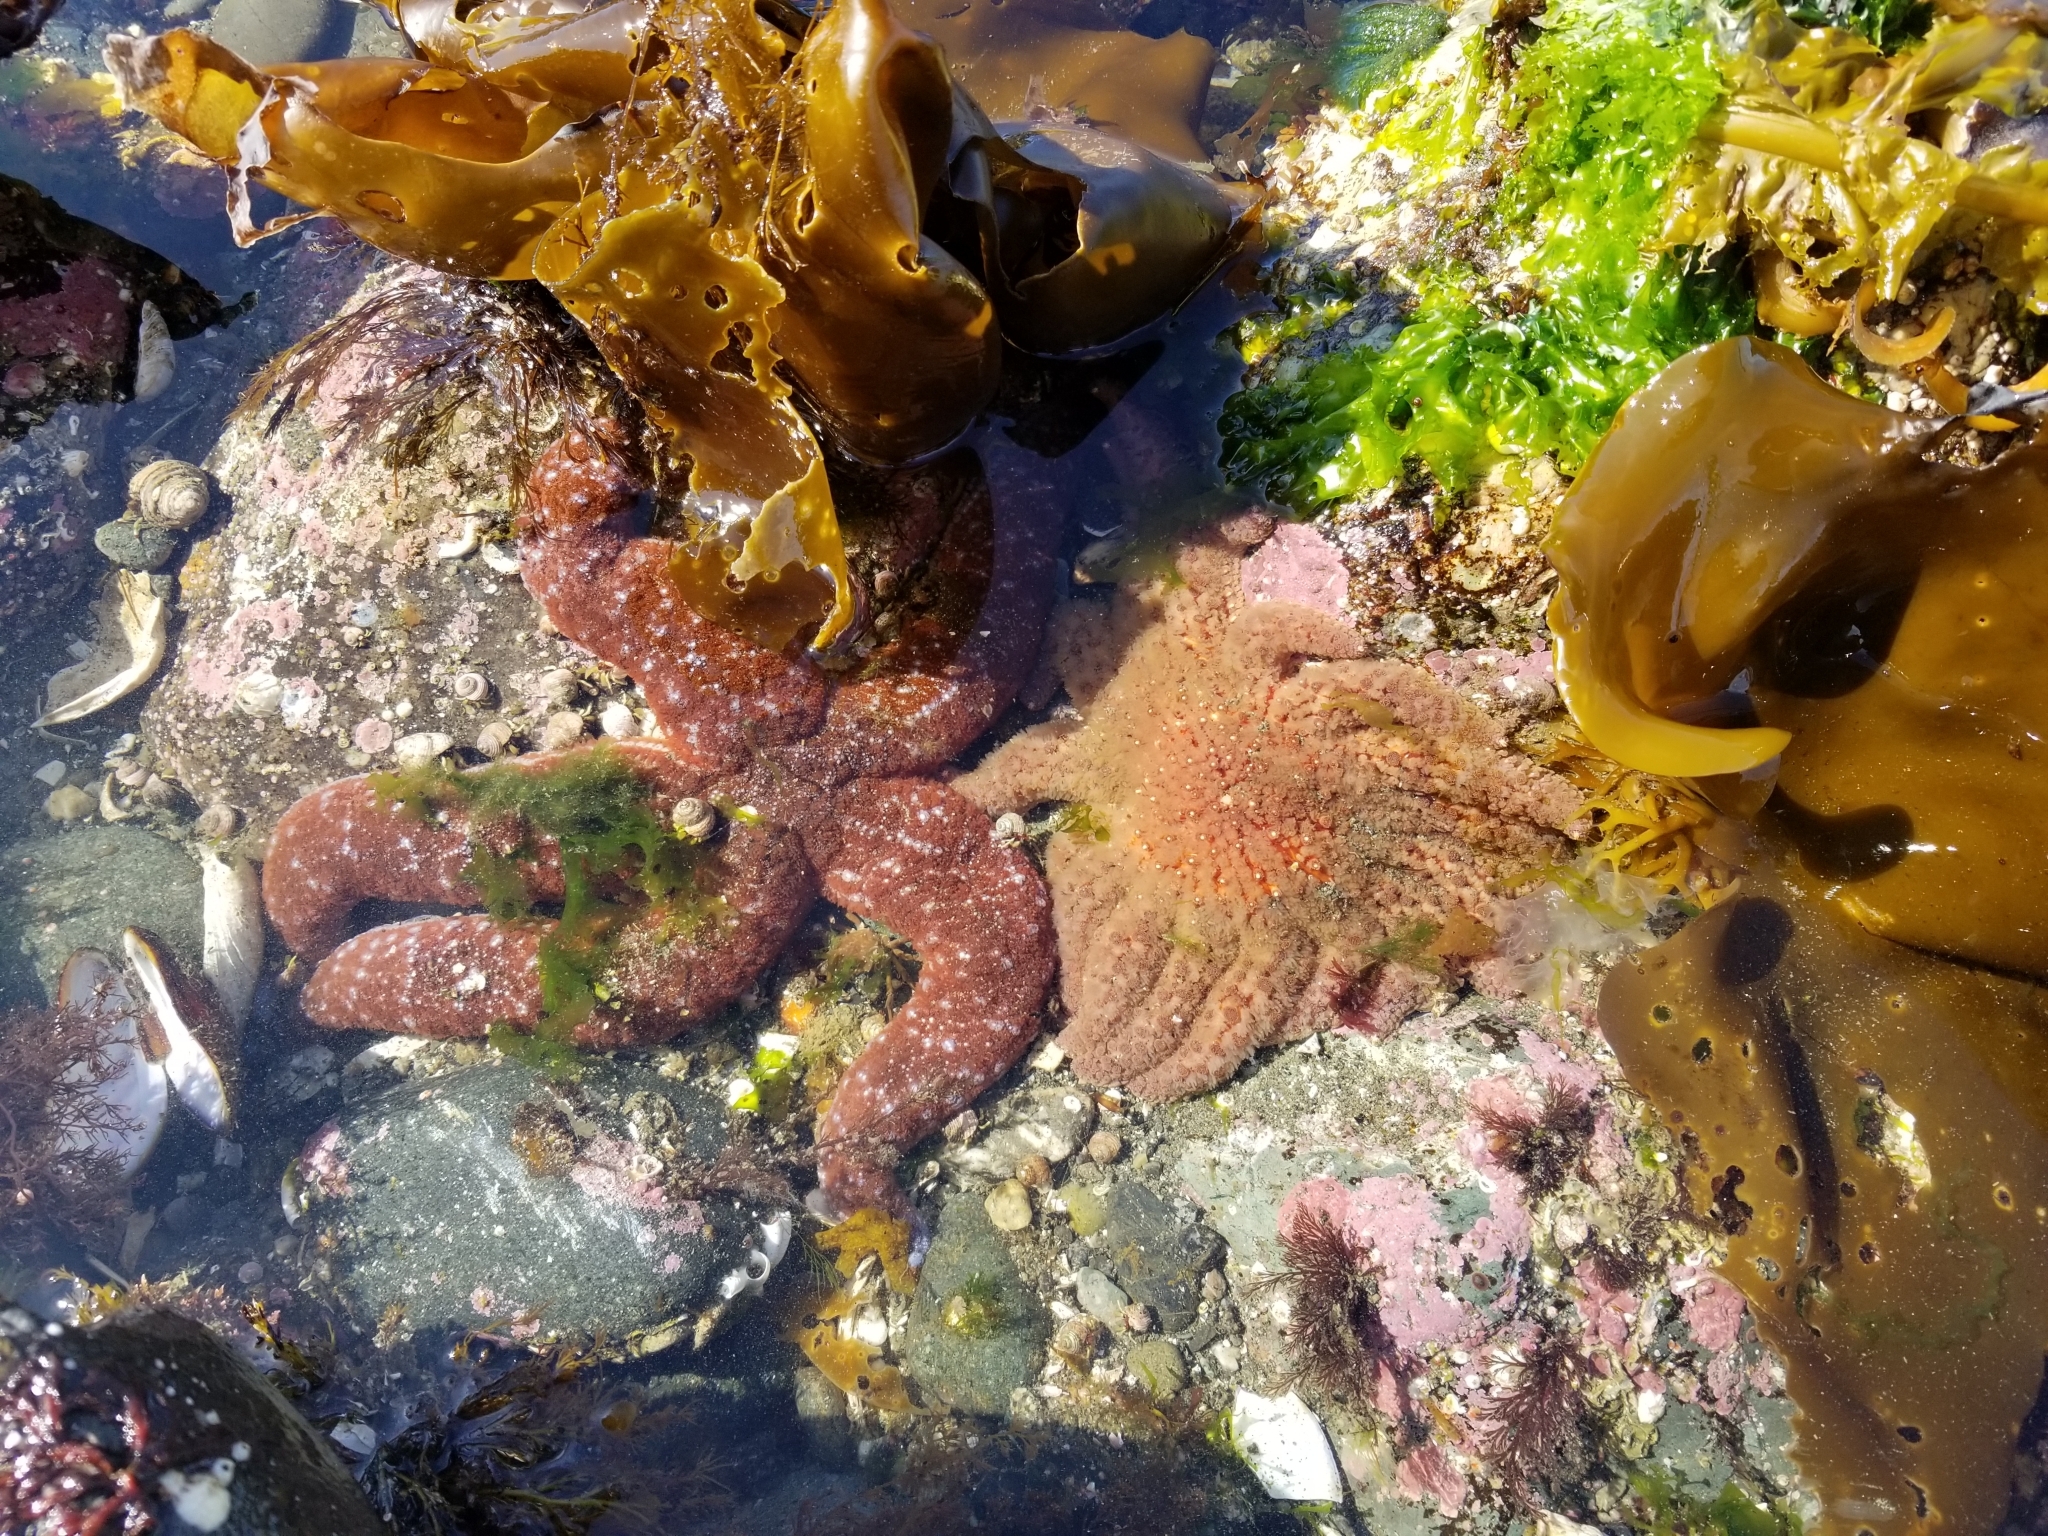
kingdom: Animalia
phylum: Echinodermata
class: Asteroidea
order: Forcipulatida
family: Asteriidae
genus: Evasterias
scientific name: Evasterias troschelii
